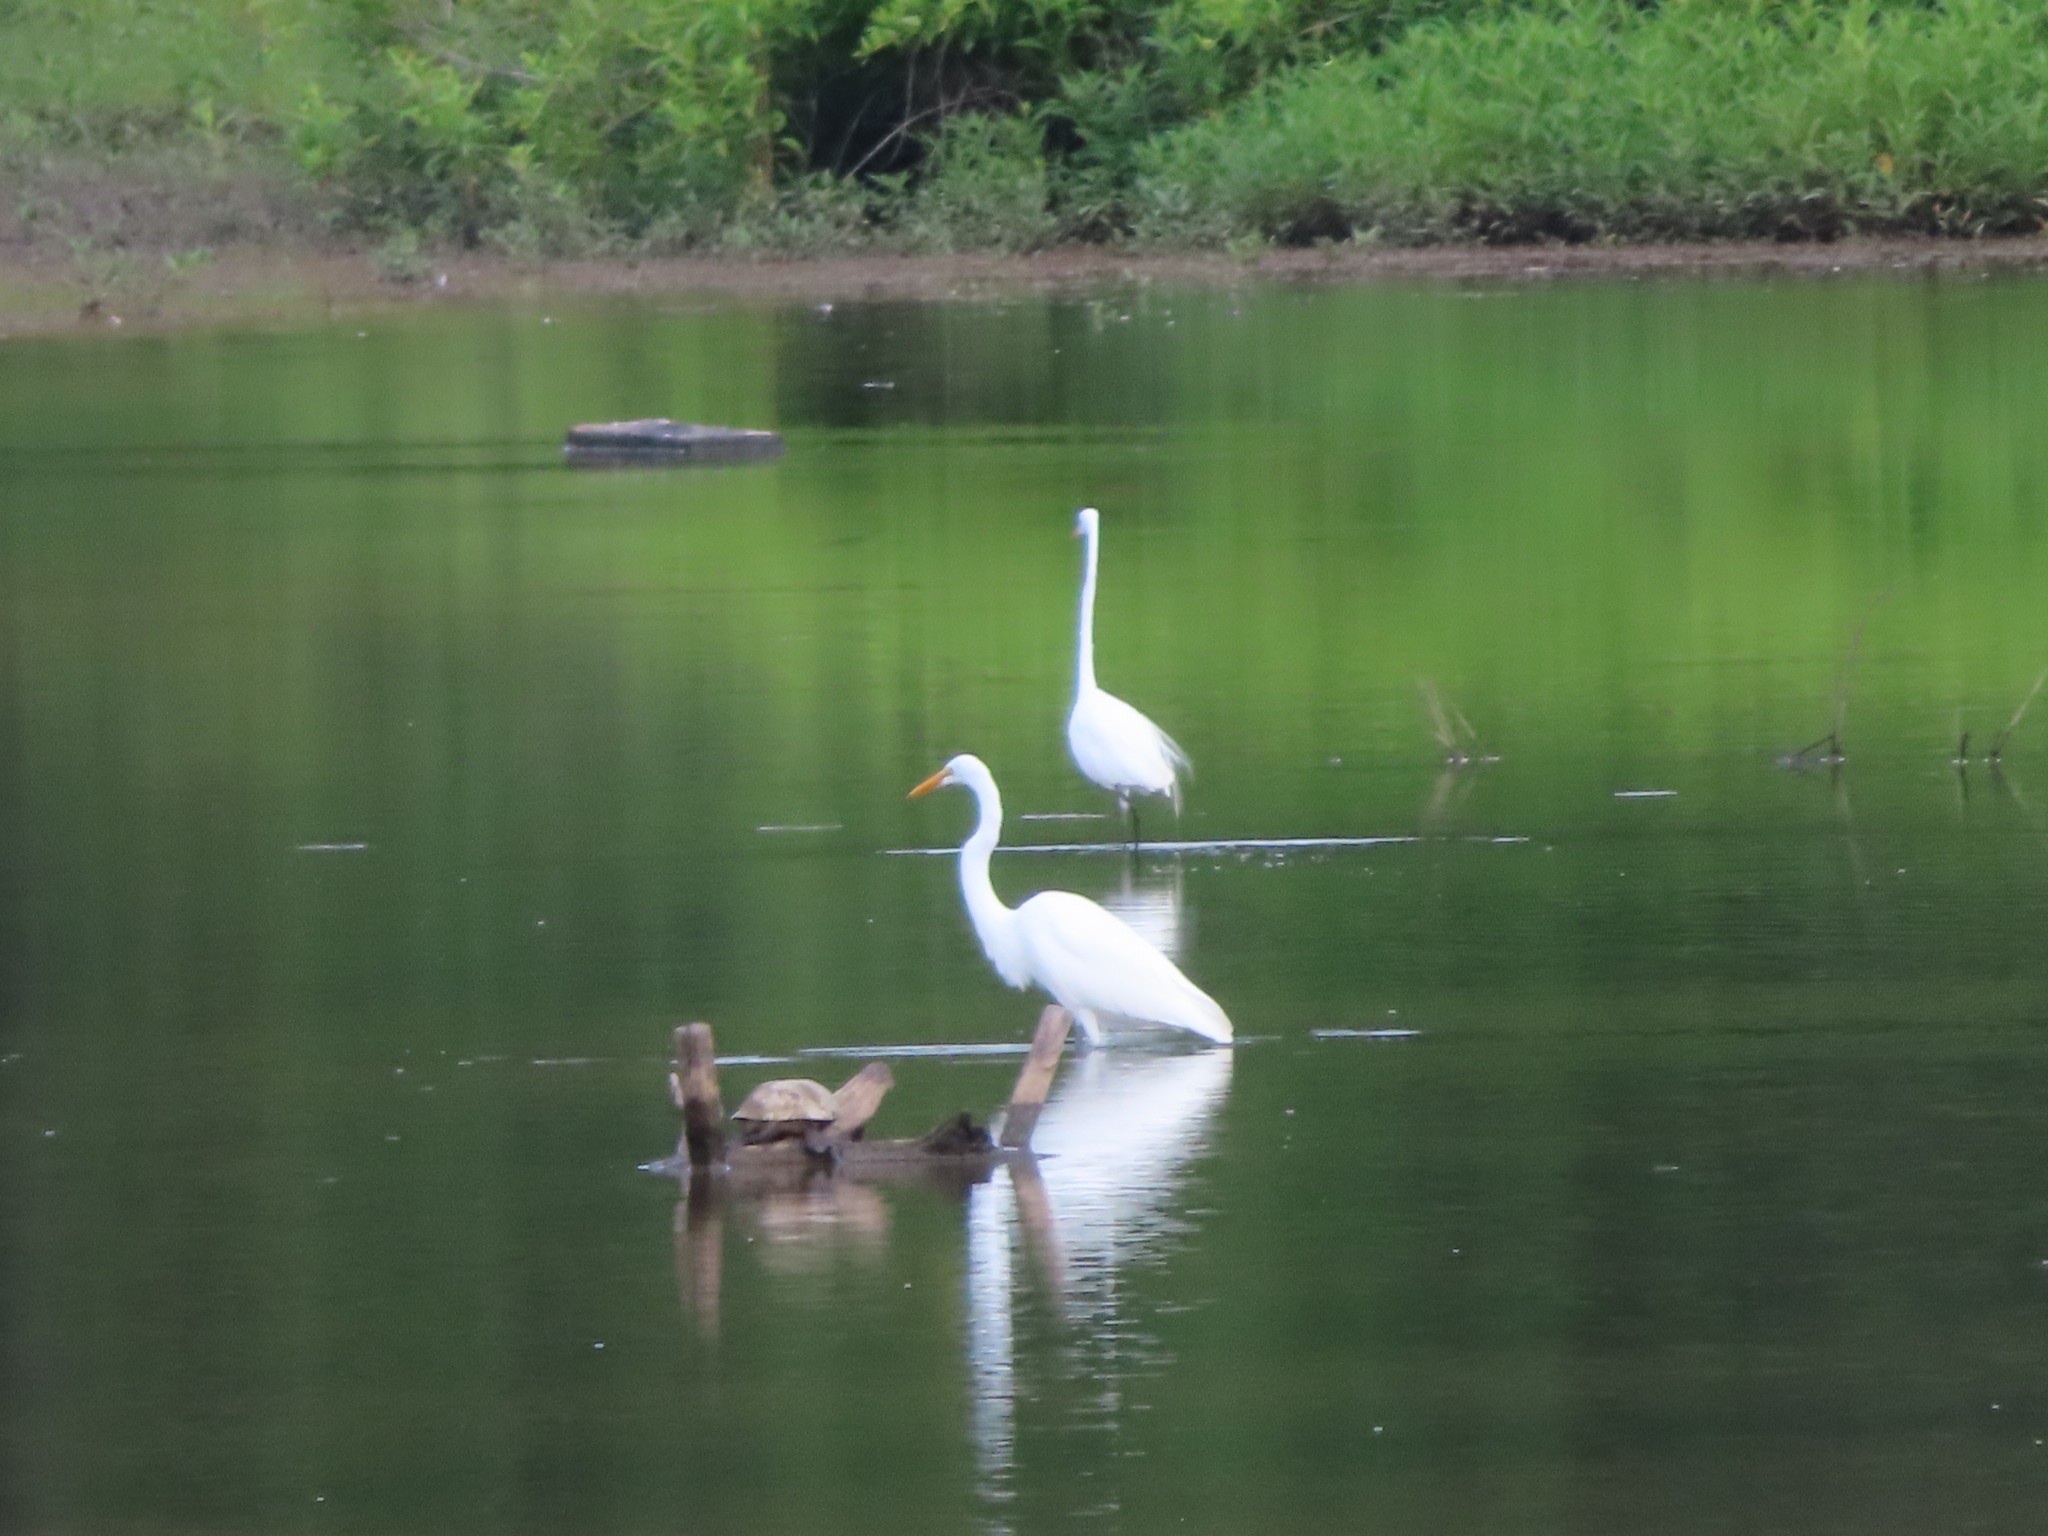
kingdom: Animalia
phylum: Chordata
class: Aves
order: Pelecaniformes
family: Ardeidae
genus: Ardea
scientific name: Ardea alba
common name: Great egret
